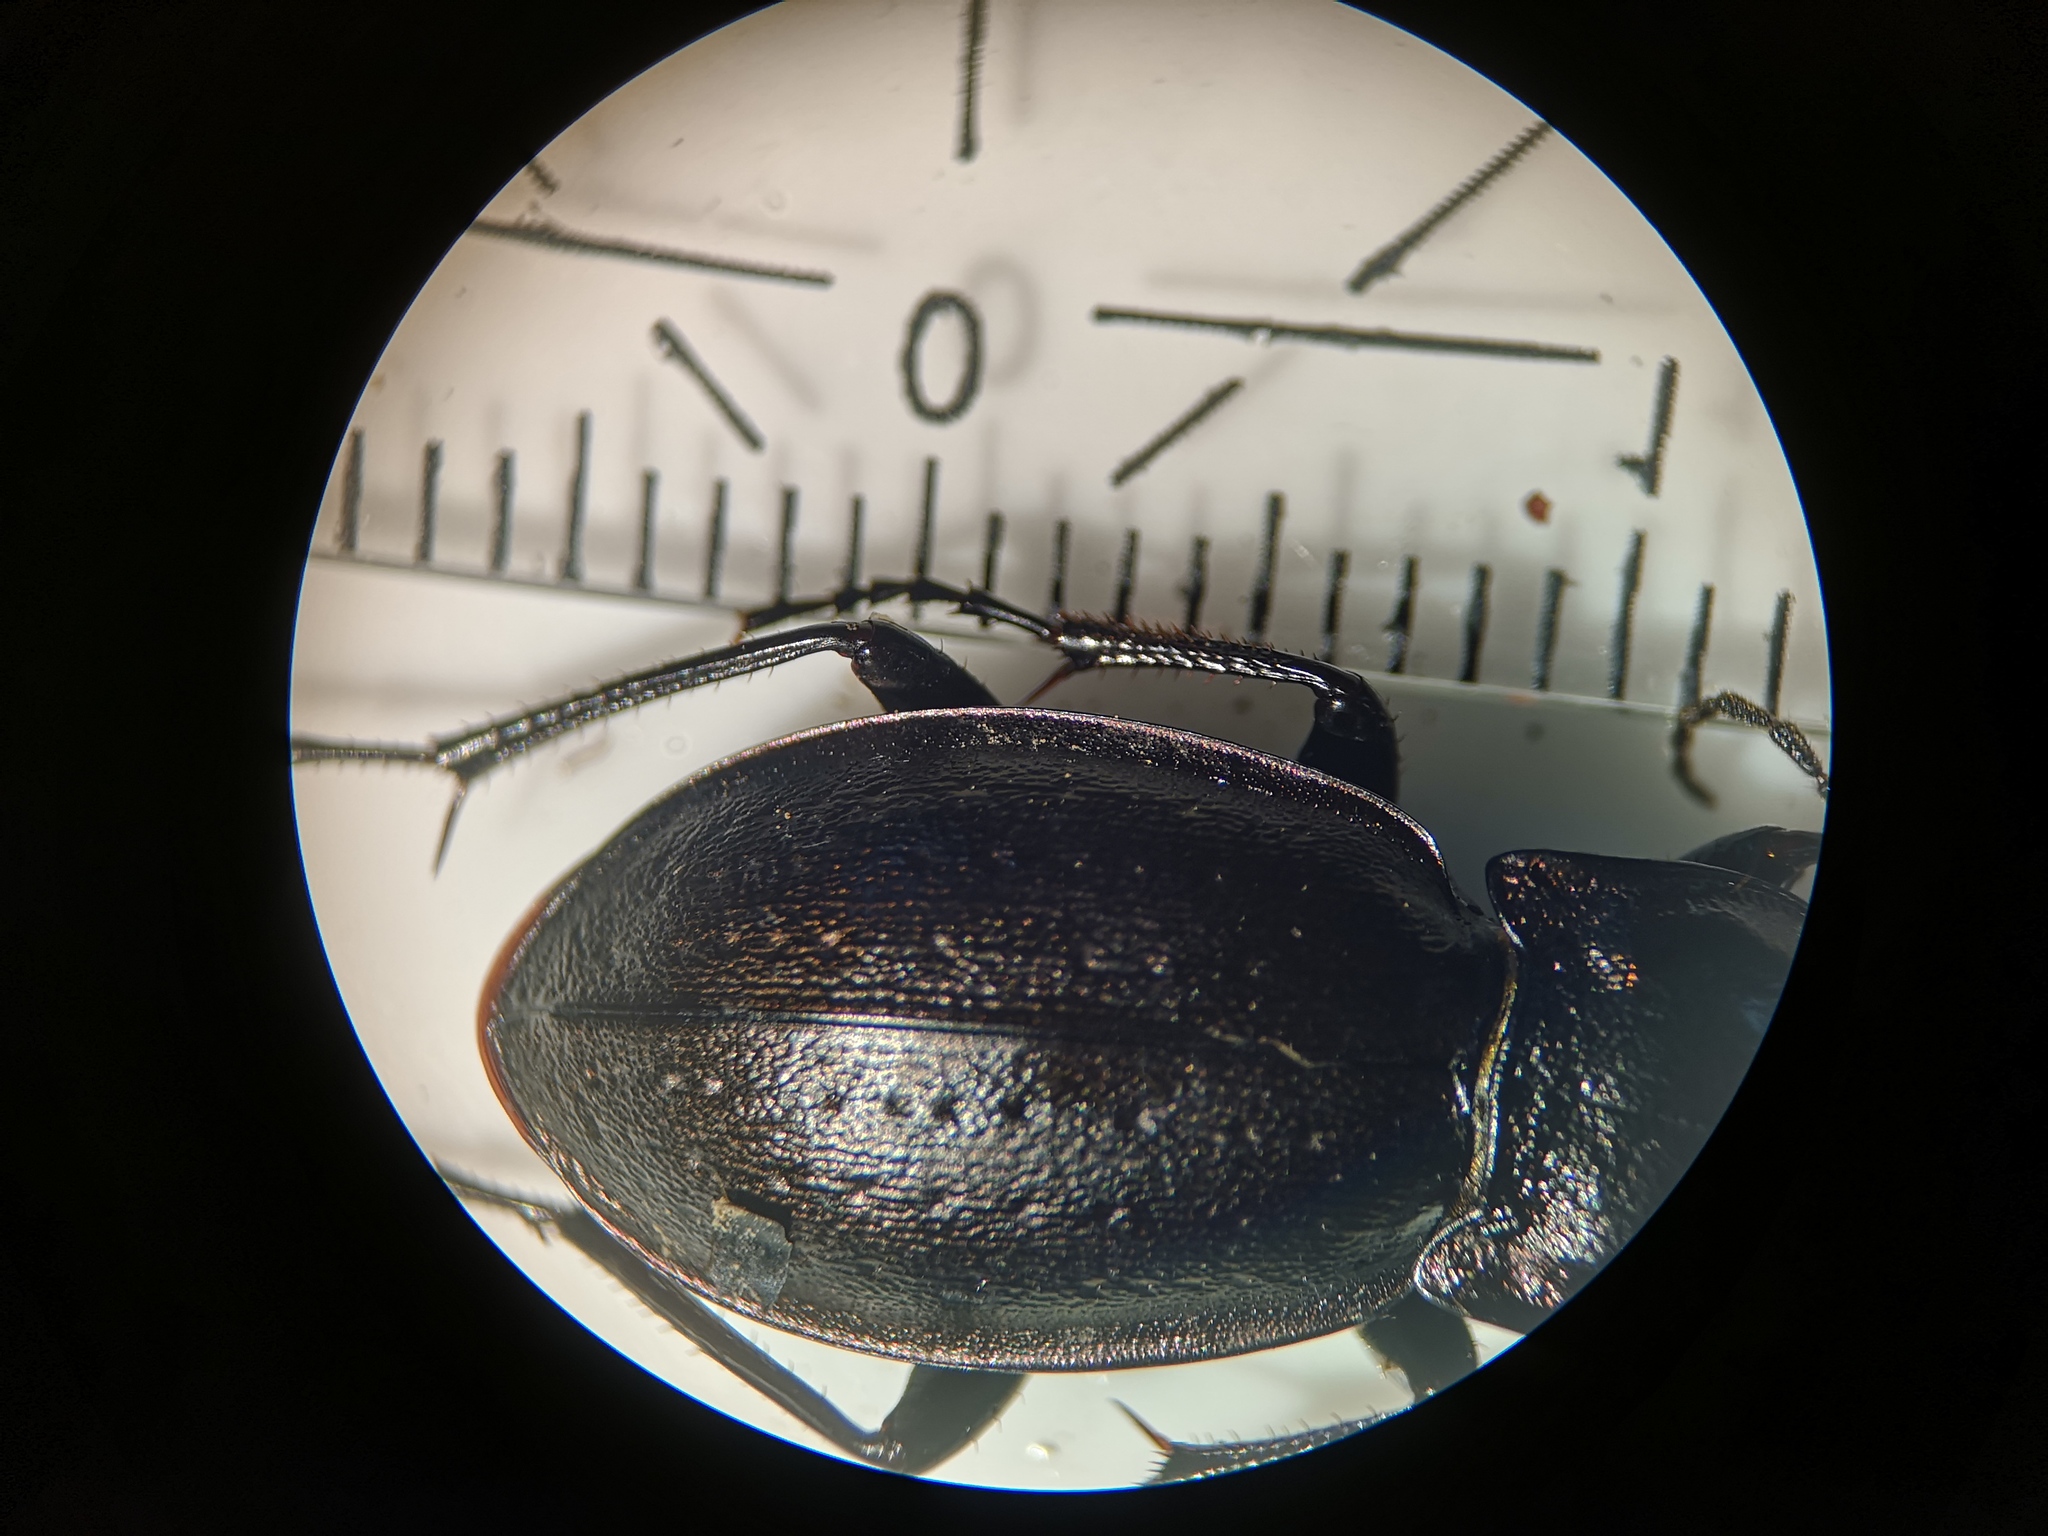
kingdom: Animalia
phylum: Arthropoda
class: Insecta
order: Coleoptera
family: Carabidae
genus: Carabus
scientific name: Carabus nemoralis
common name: European ground beetle
